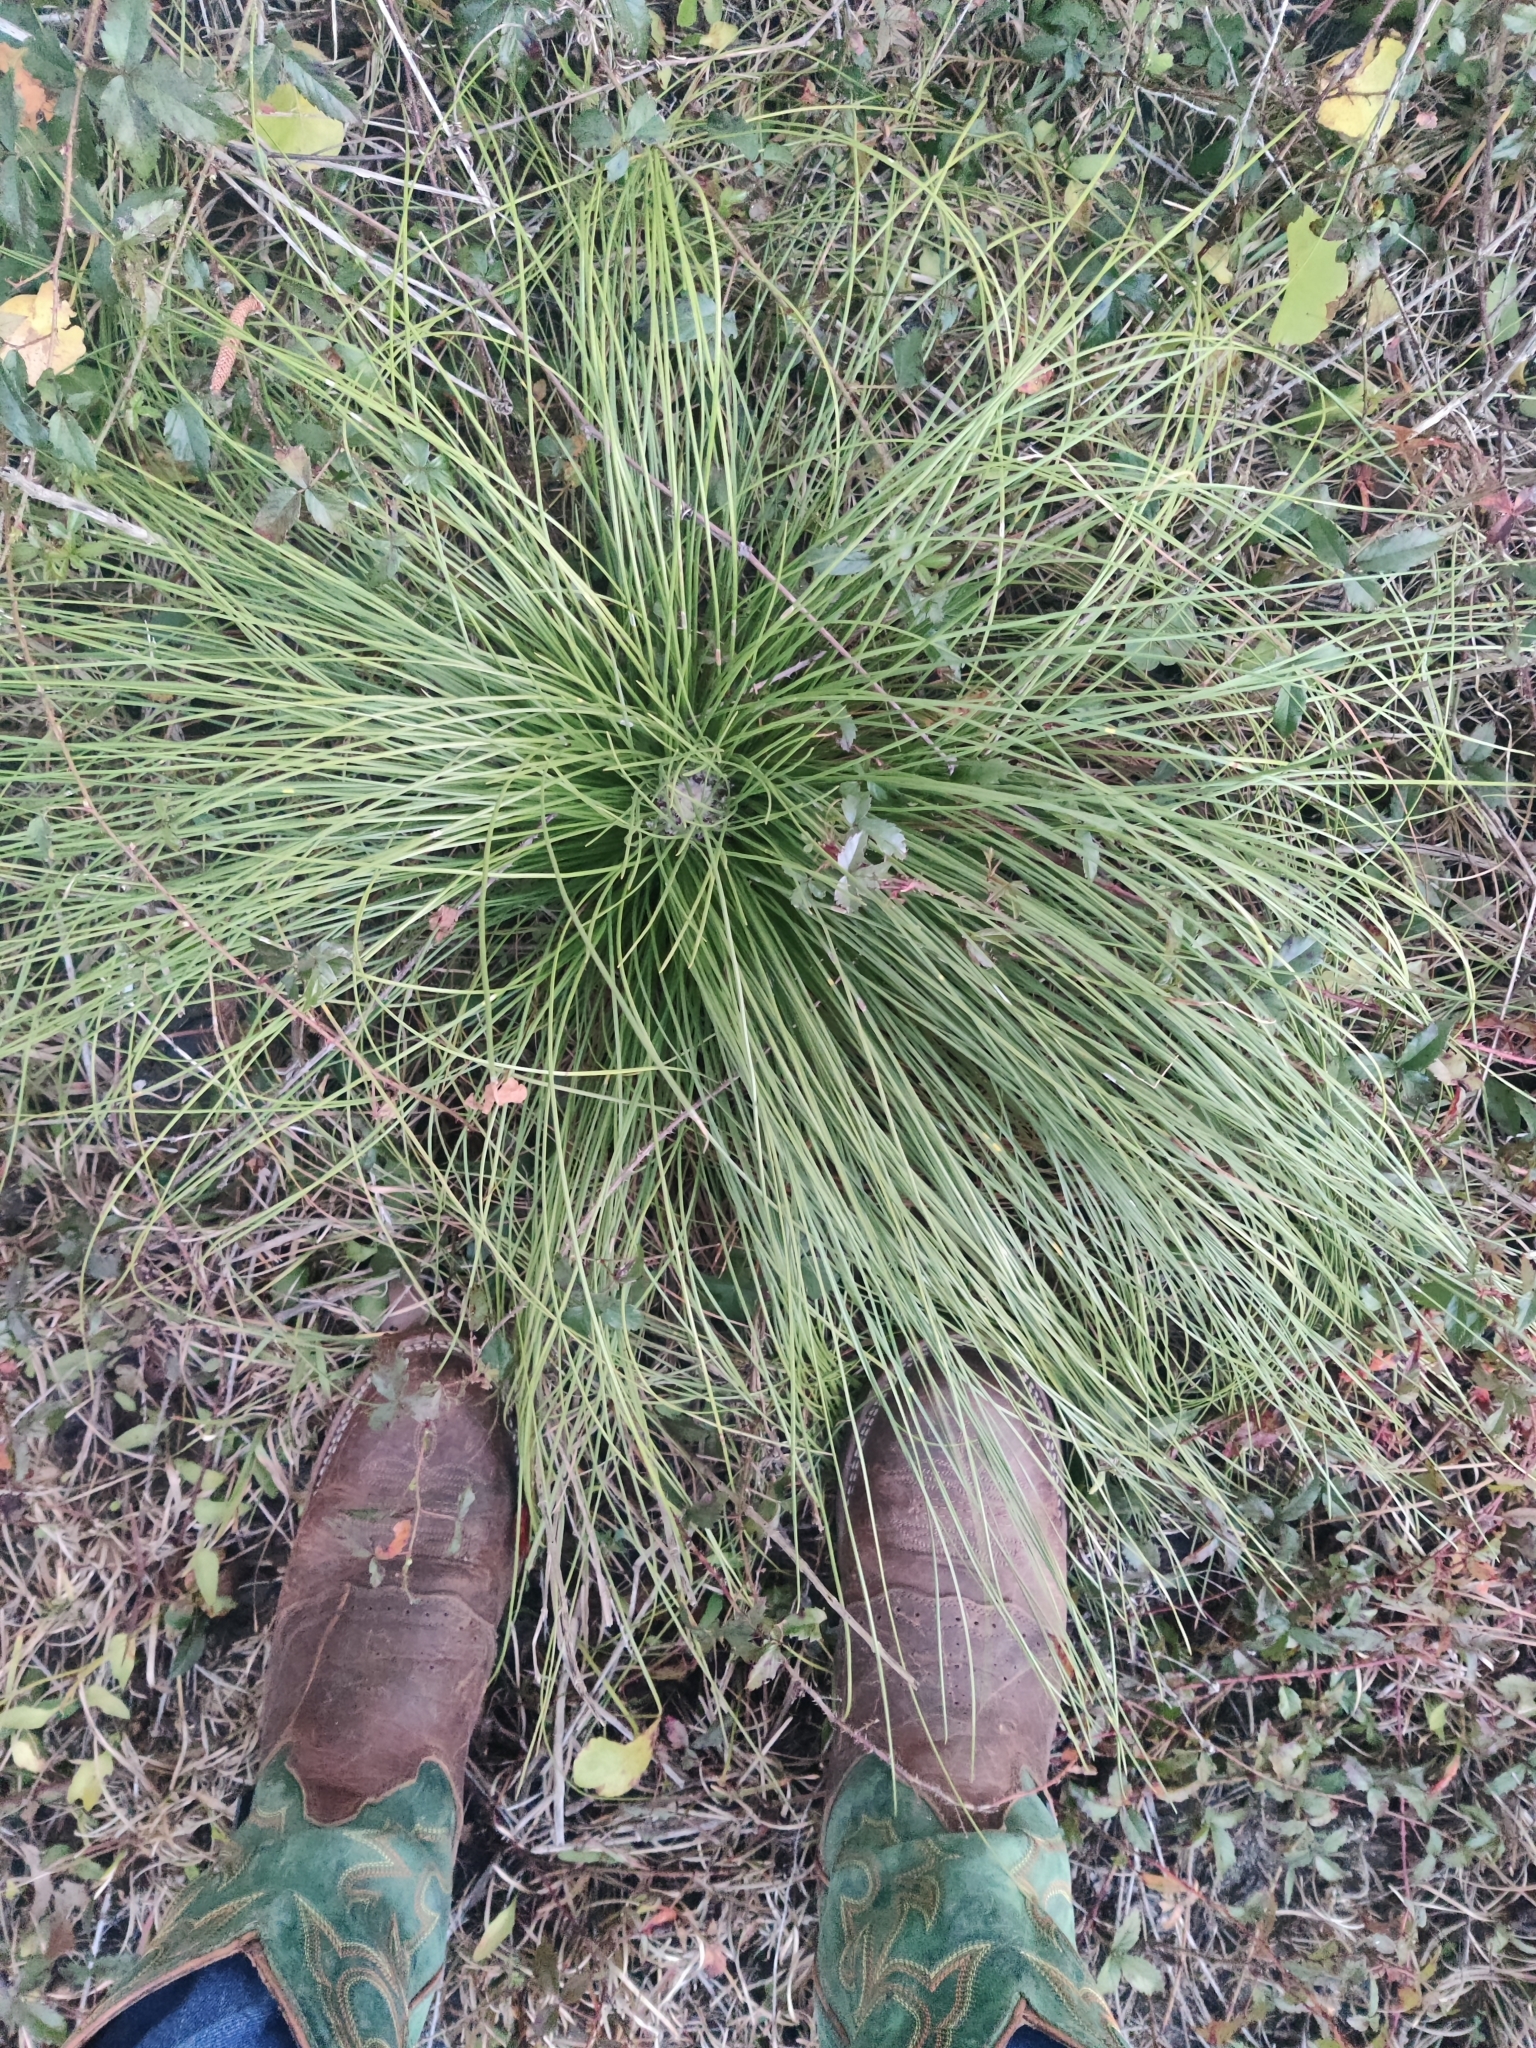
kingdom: Plantae
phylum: Tracheophyta
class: Pinopsida
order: Pinales
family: Pinaceae
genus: Pinus
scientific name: Pinus palustris
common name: Longleaf pine
